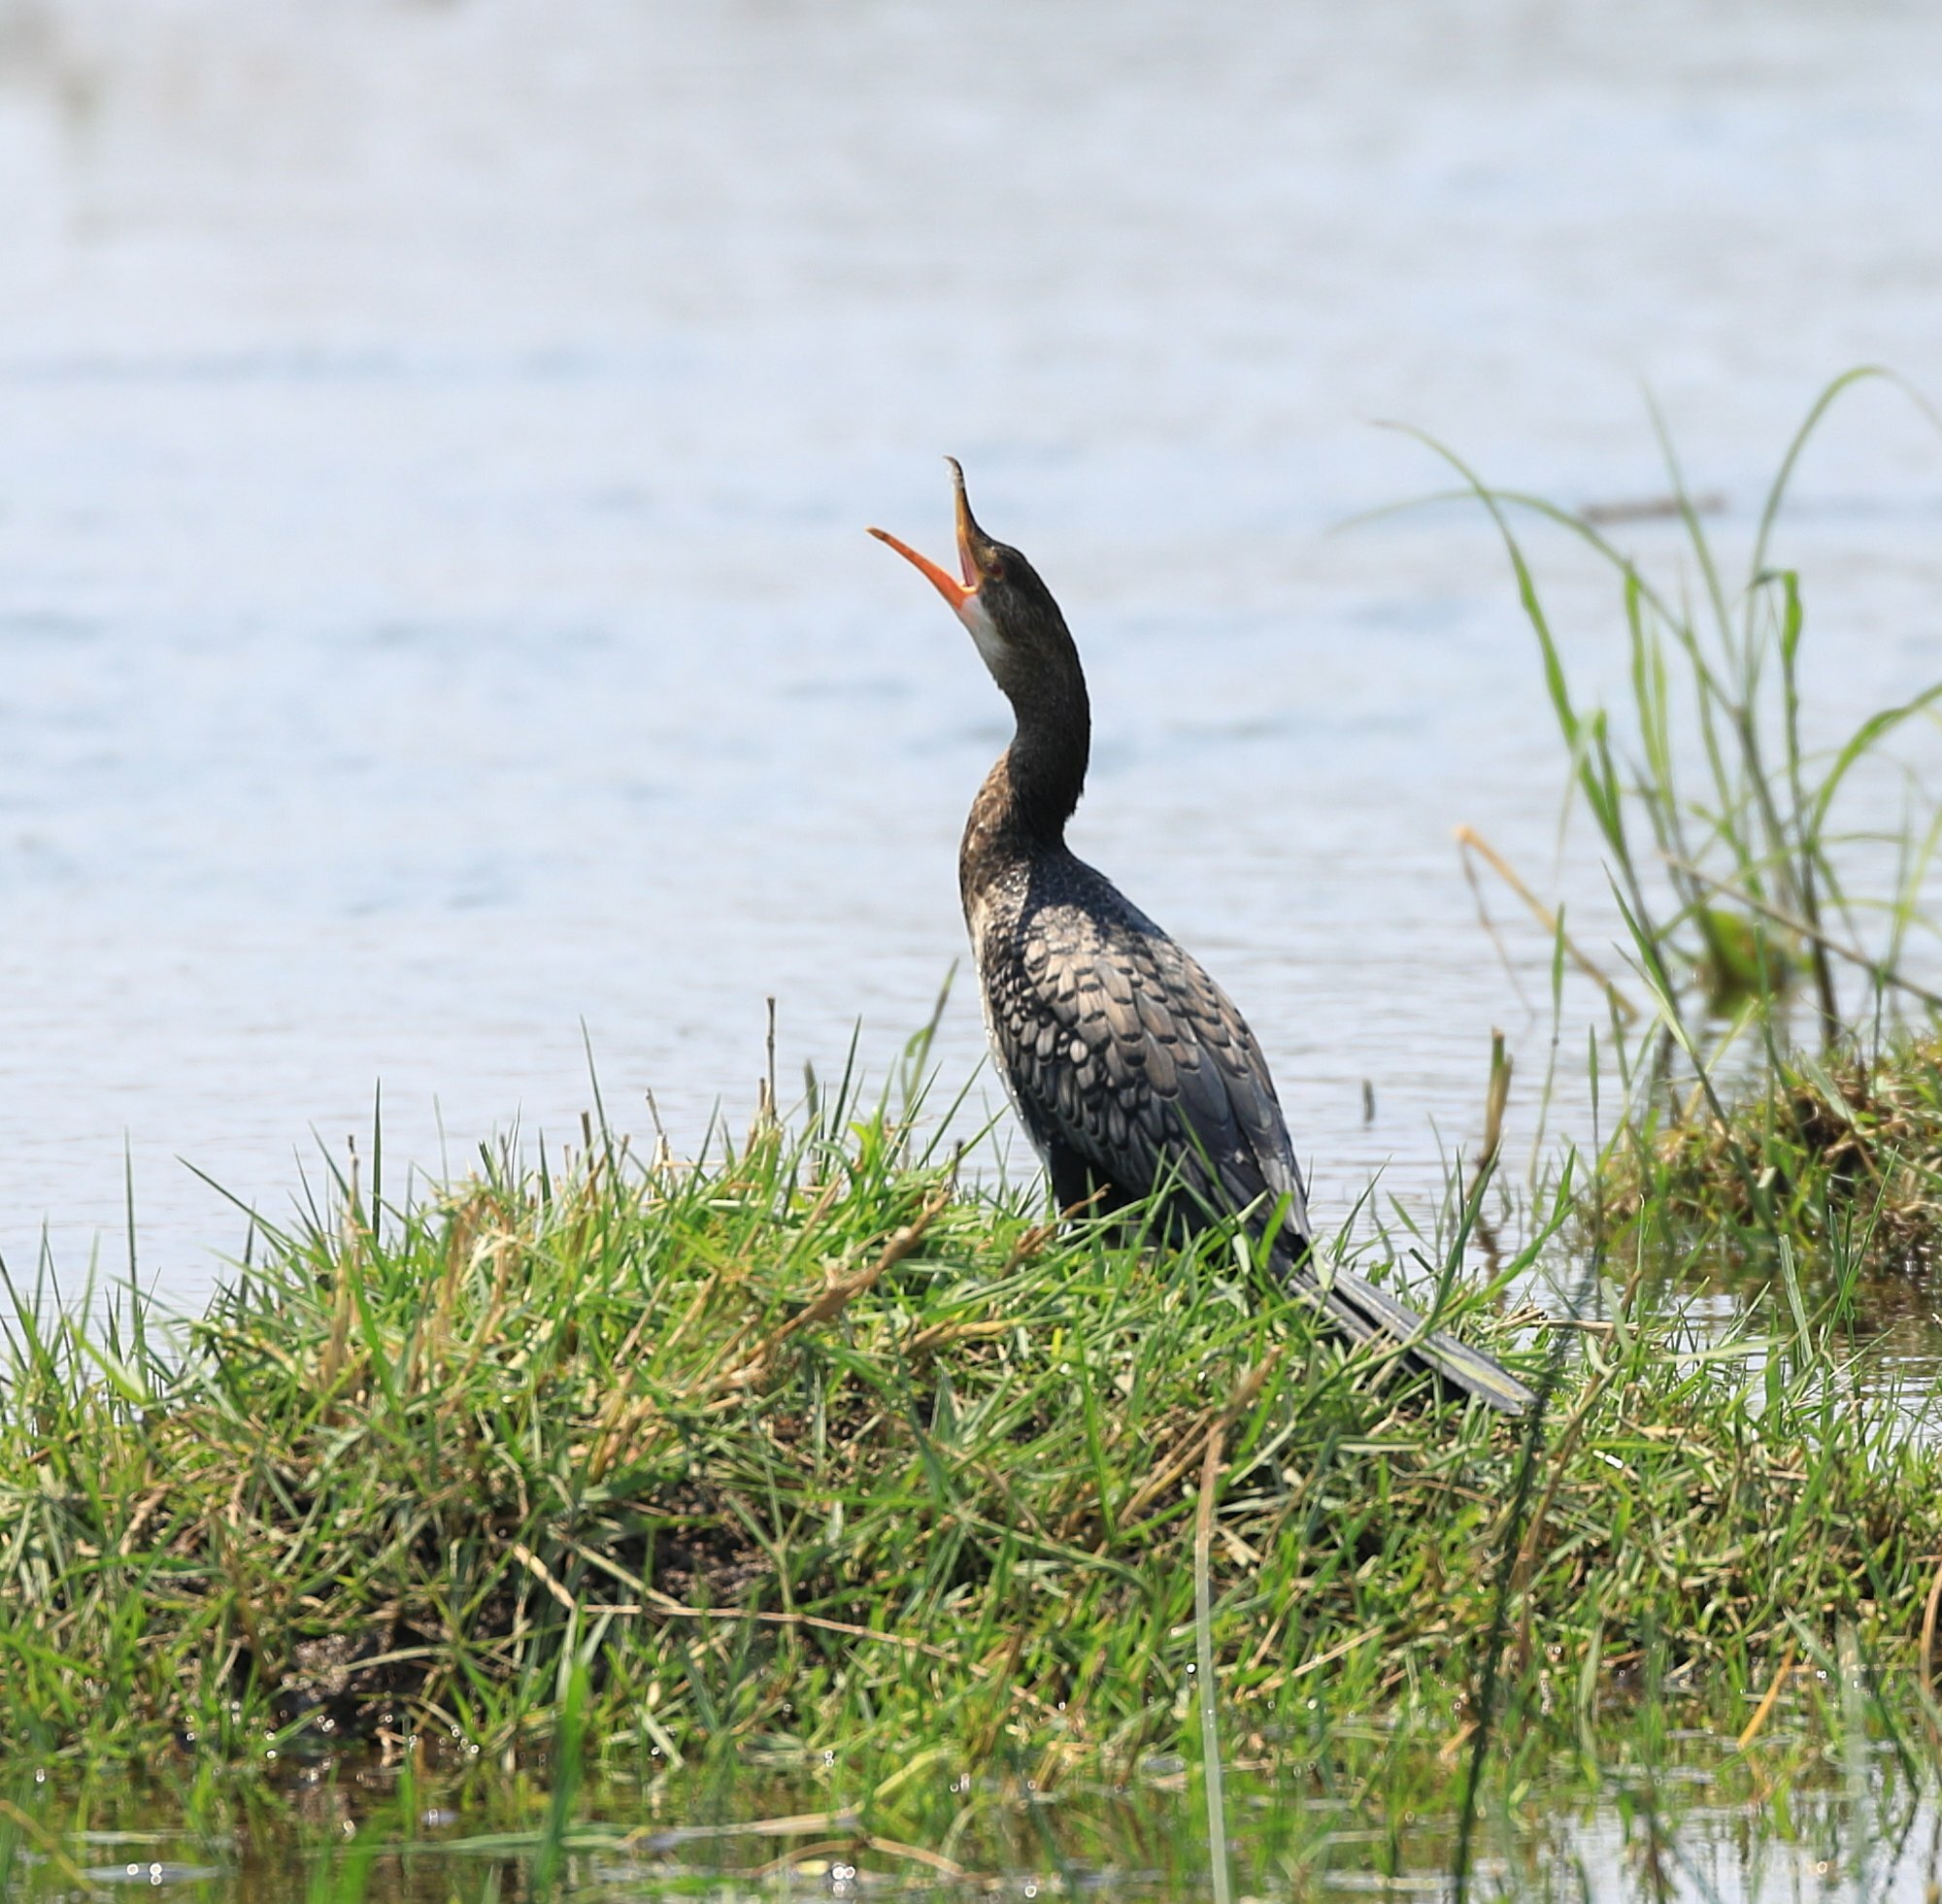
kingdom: Animalia
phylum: Chordata
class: Aves
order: Suliformes
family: Phalacrocoracidae
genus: Microcarbo
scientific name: Microcarbo africanus
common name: Long-tailed cormorant
